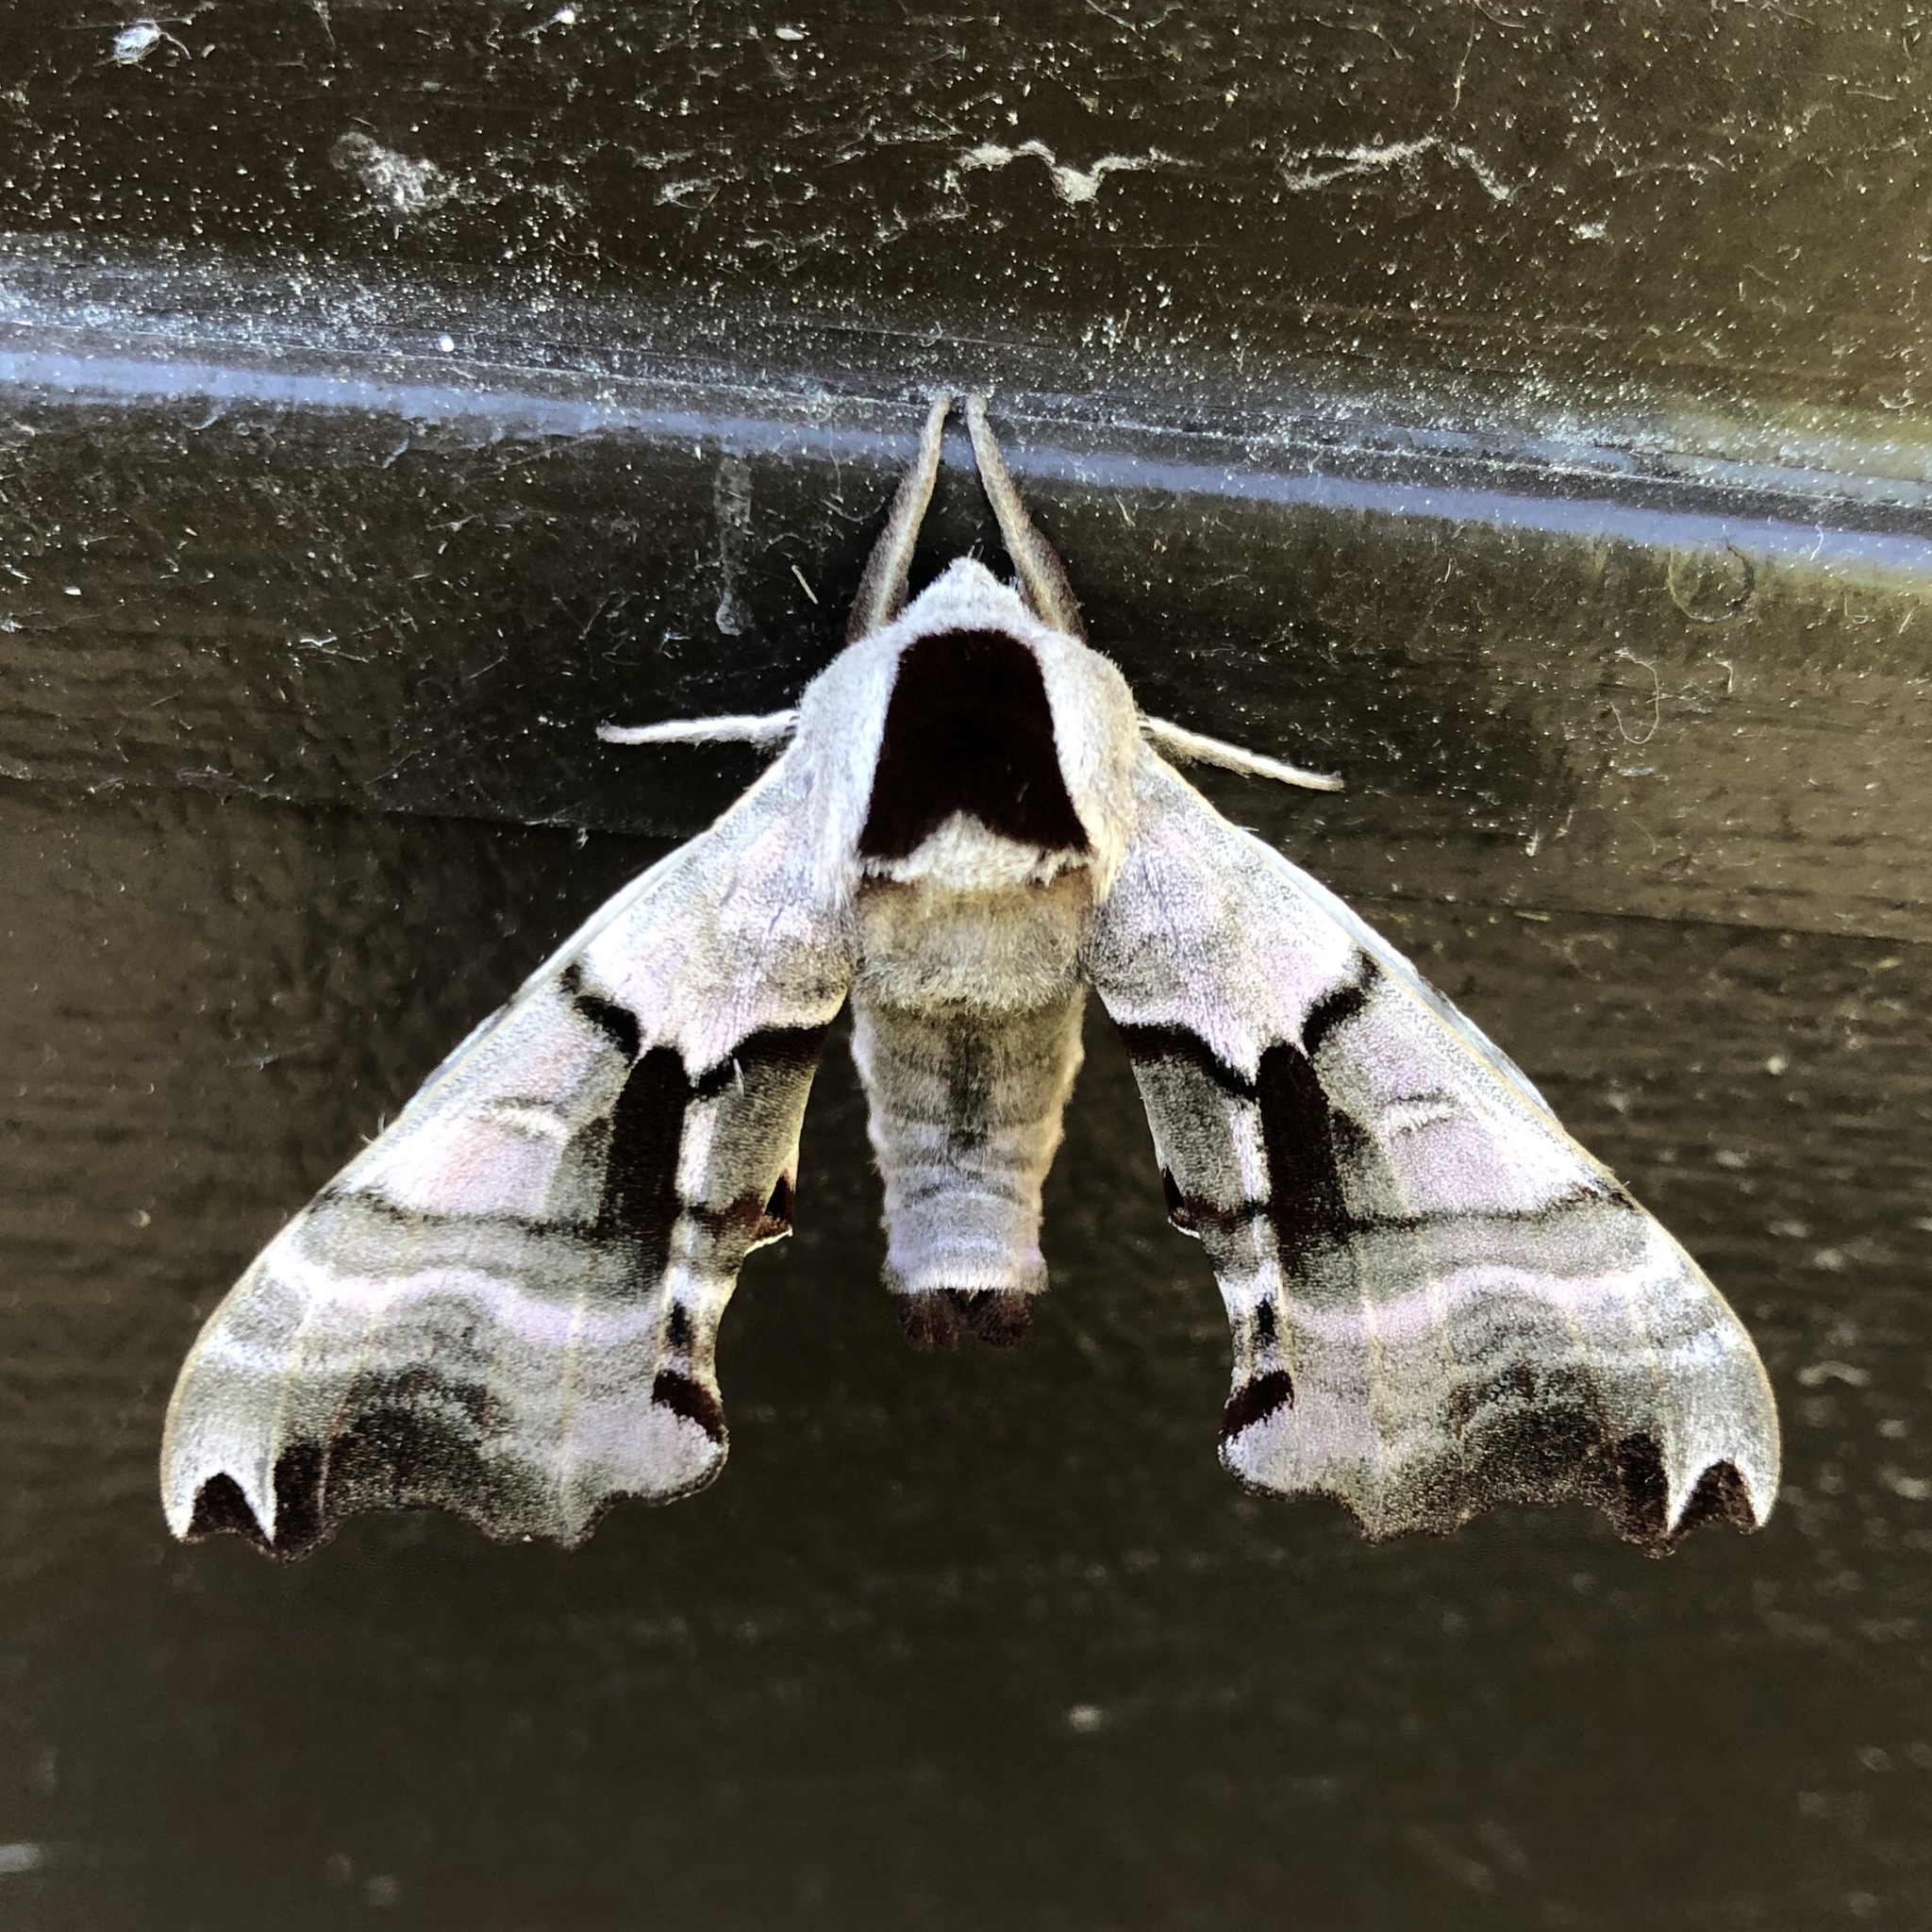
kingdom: Animalia
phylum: Arthropoda
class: Insecta
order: Lepidoptera
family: Sphingidae
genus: Smerinthus
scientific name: Smerinthus jamaicensis
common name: Twin spotted sphinx
